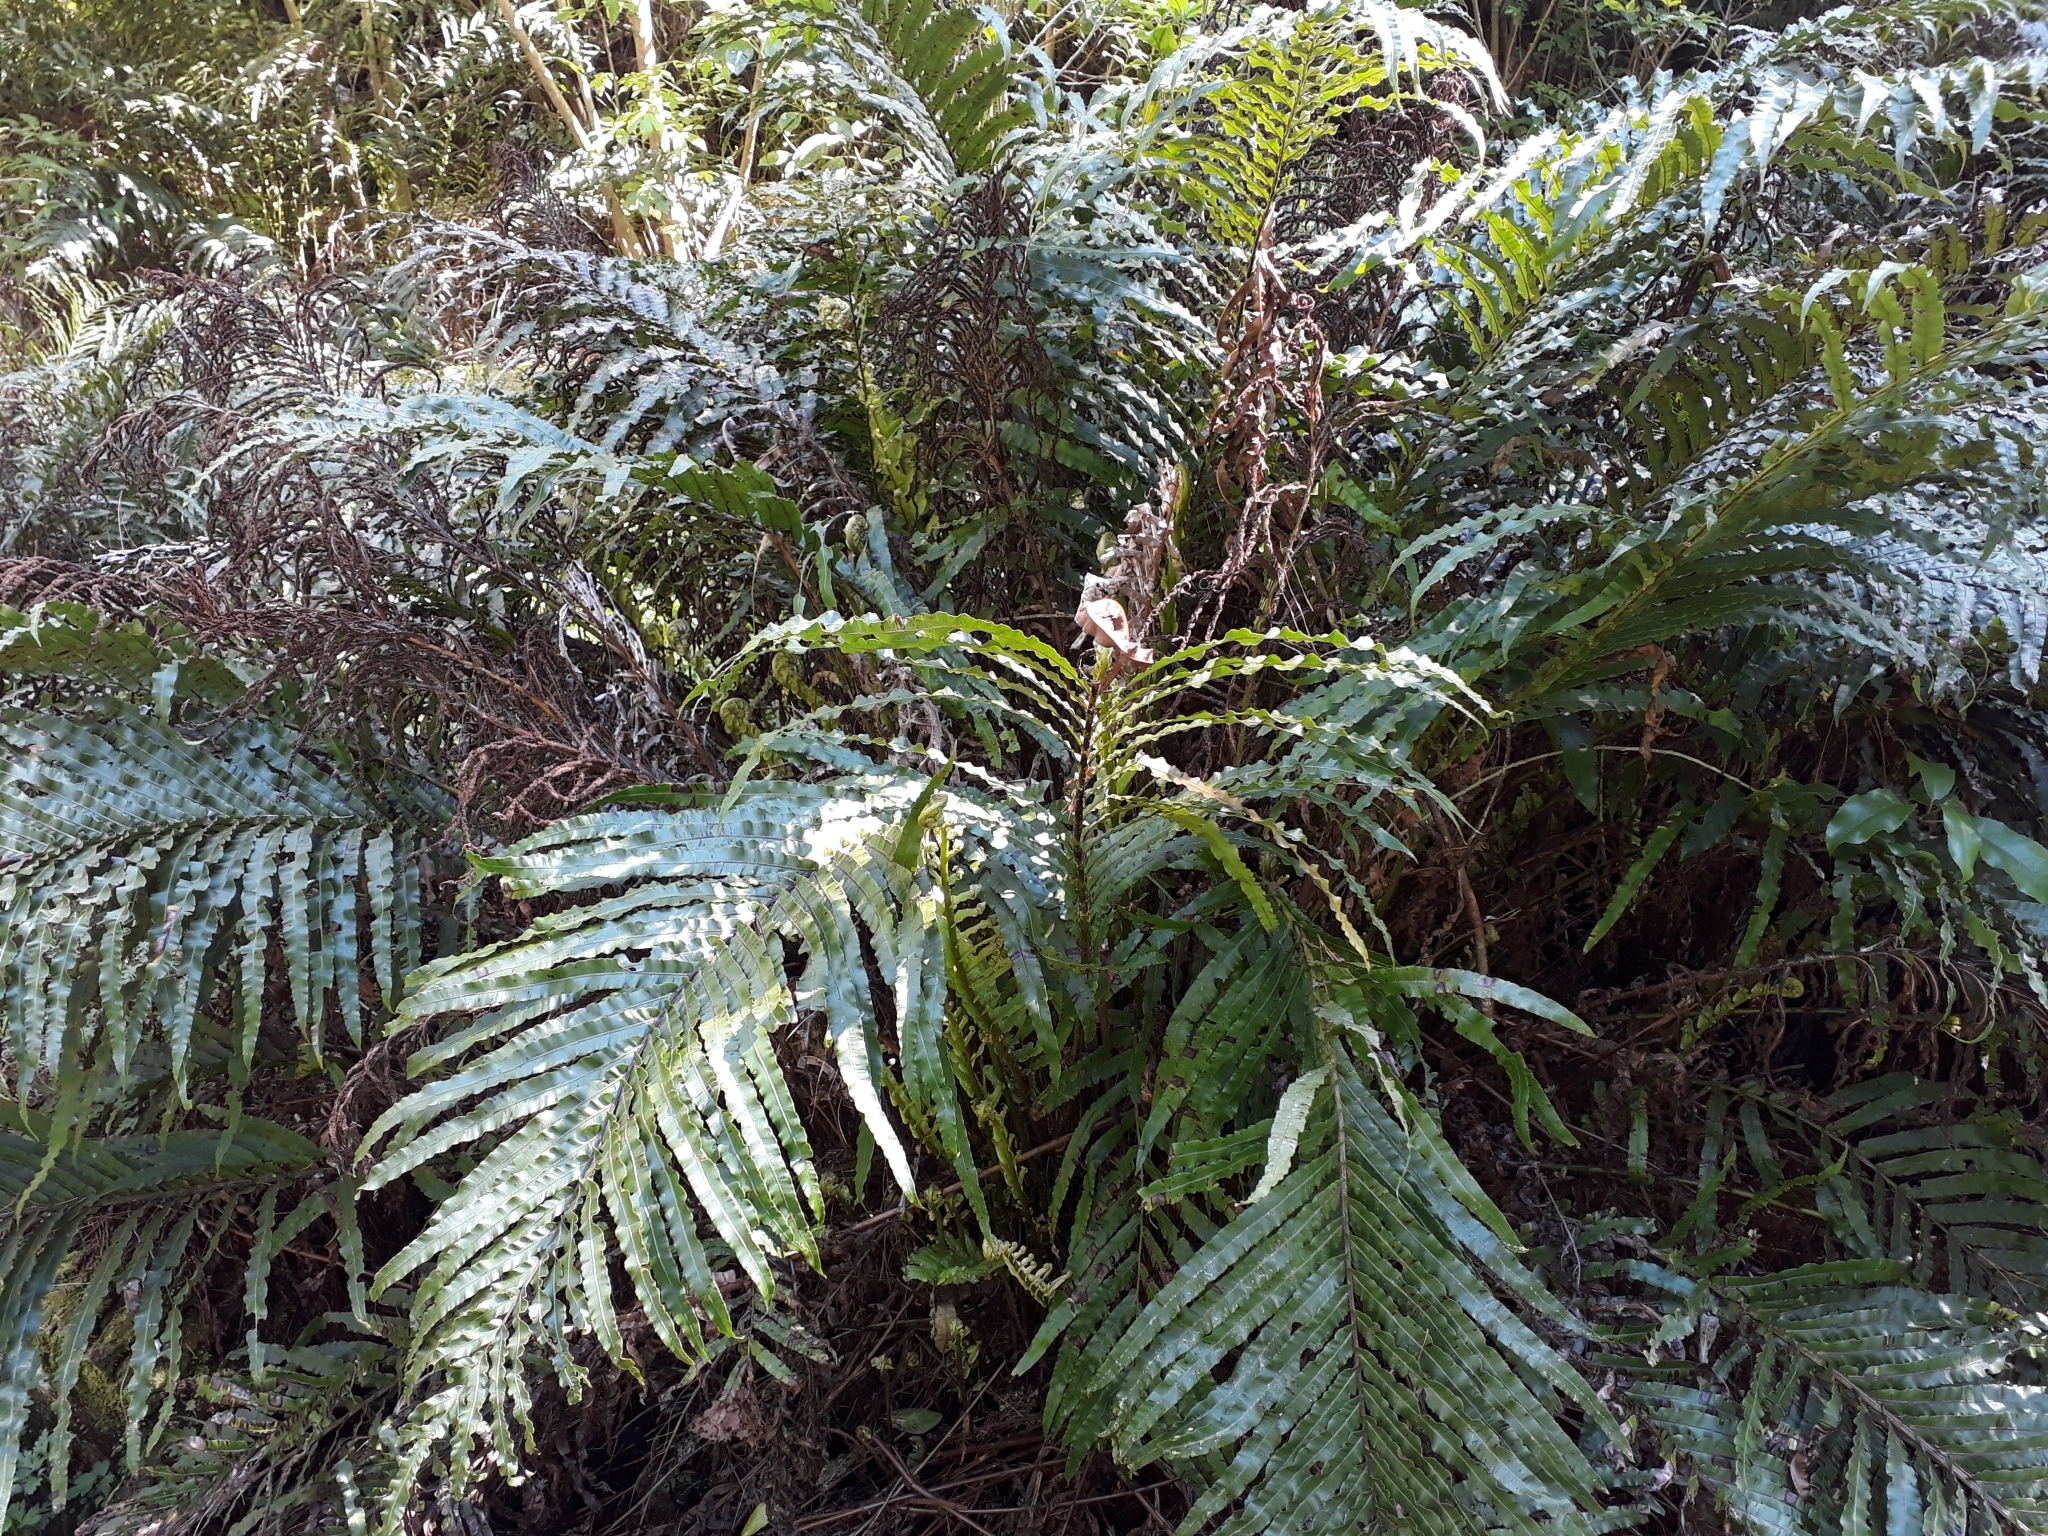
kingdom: Plantae
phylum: Tracheophyta
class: Polypodiopsida
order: Polypodiales
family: Blechnaceae
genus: Parablechnum
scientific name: Parablechnum novae-zelandiae
